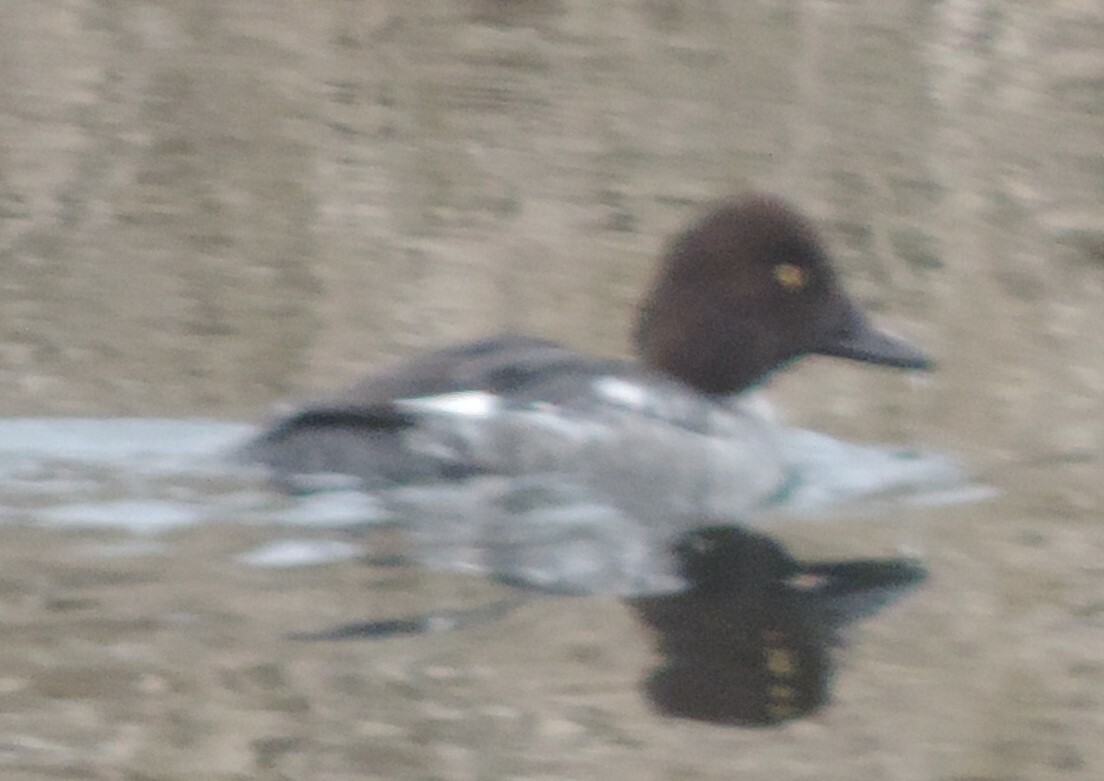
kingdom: Animalia
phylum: Chordata
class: Aves
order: Anseriformes
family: Anatidae
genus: Bucephala
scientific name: Bucephala clangula
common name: Common goldeneye
